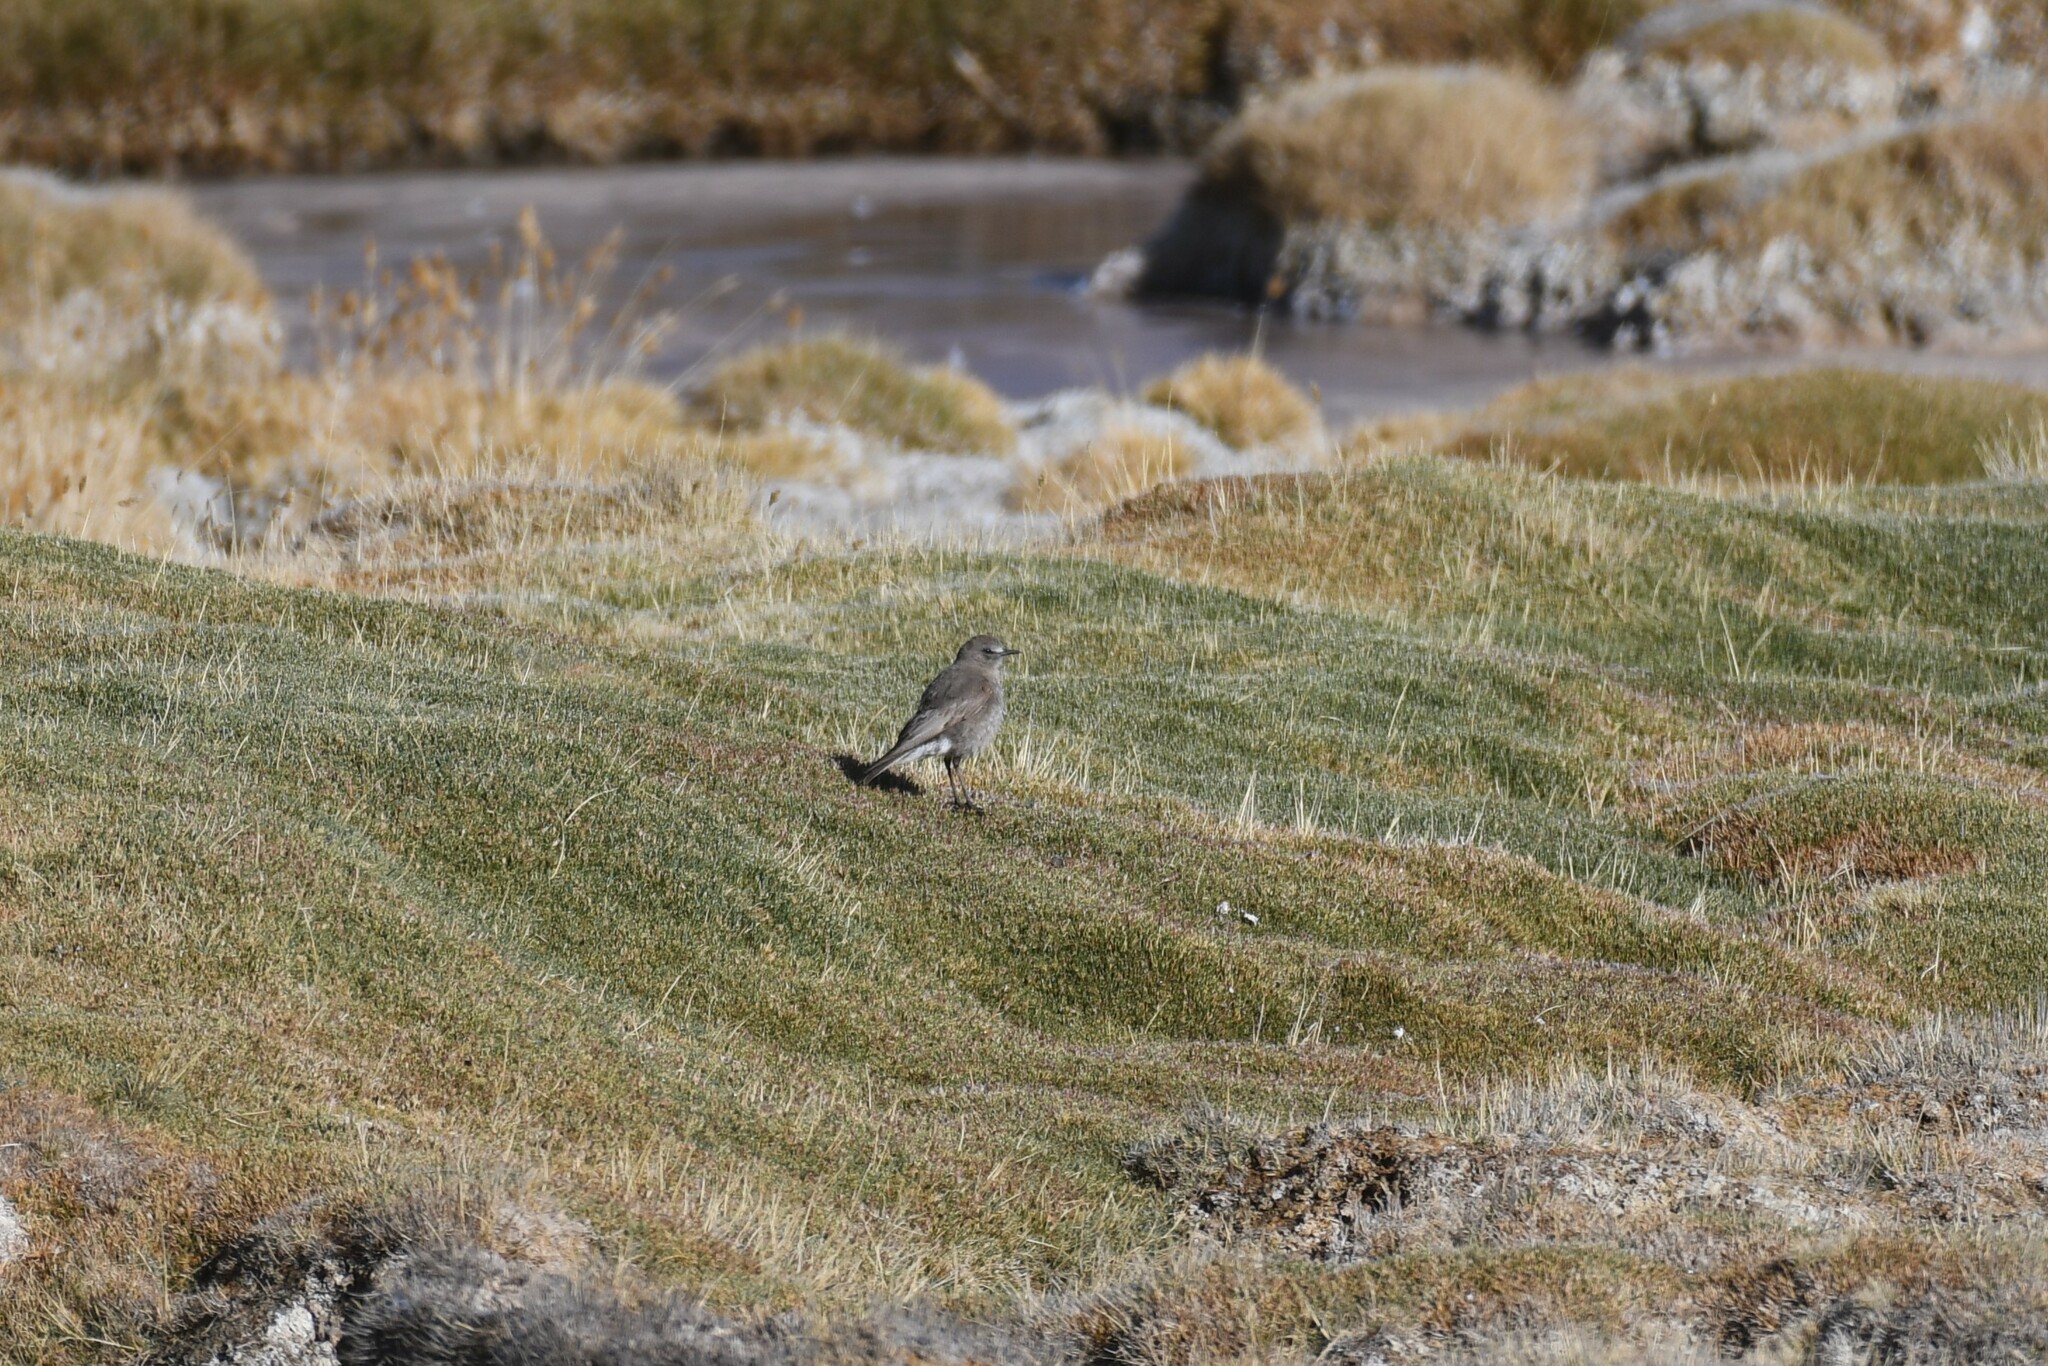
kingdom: Animalia
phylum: Chordata
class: Aves
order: Passeriformes
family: Tyrannidae
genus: Muscisaxicola
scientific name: Muscisaxicola albifrons
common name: White-fronted ground tyrant
